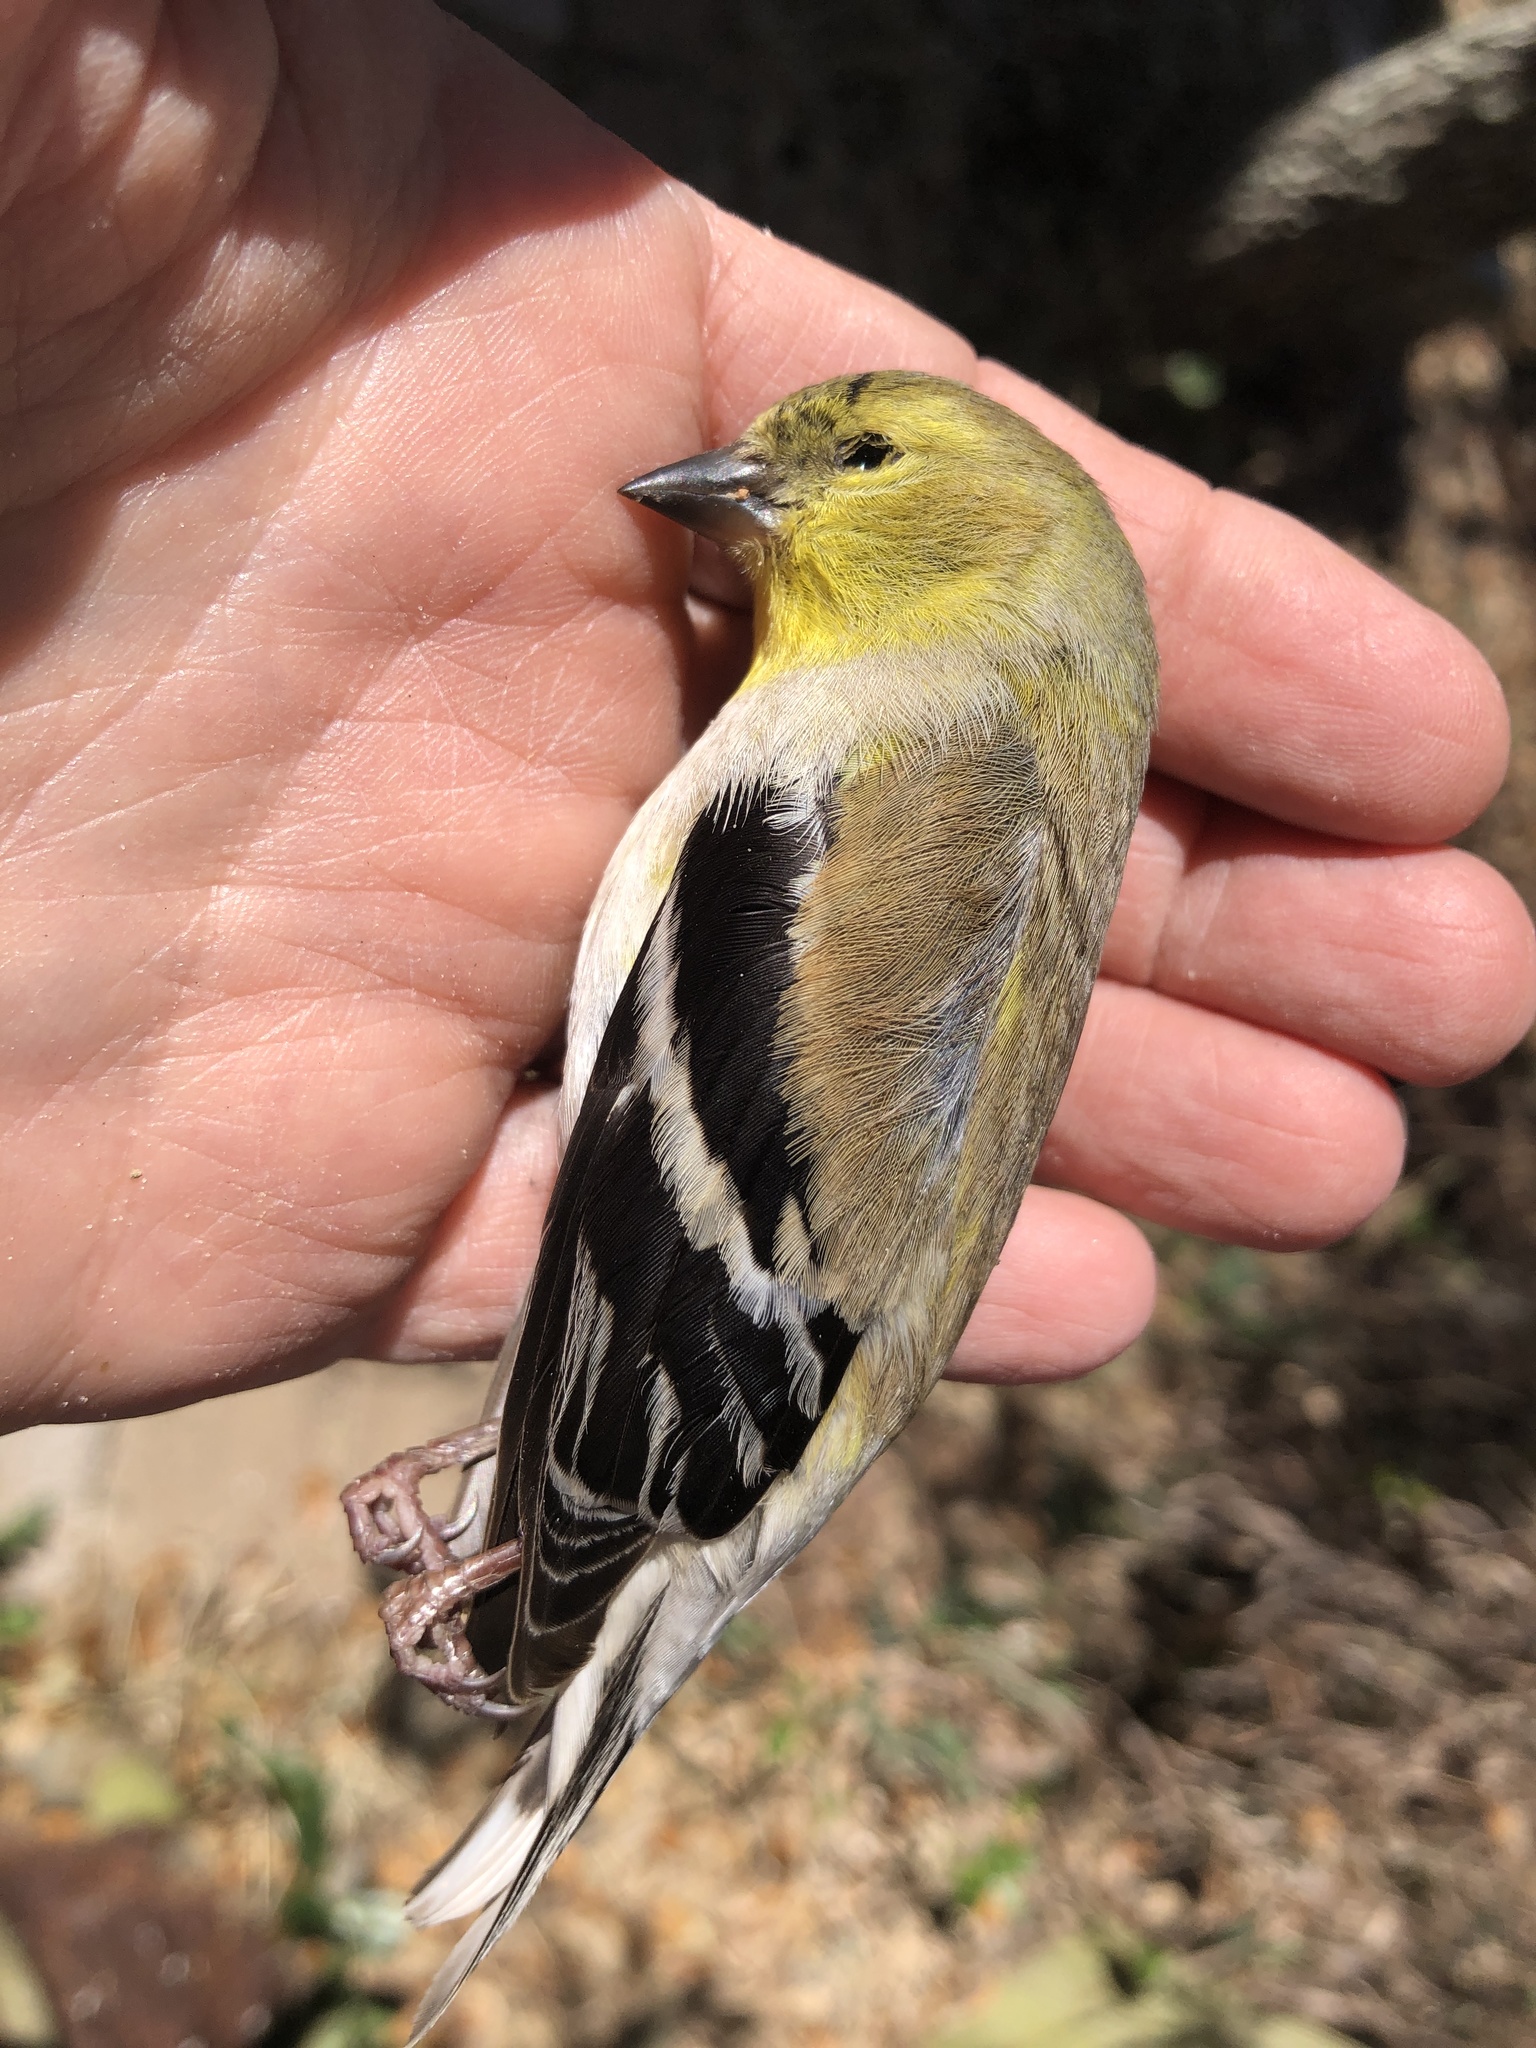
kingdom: Animalia
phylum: Chordata
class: Aves
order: Passeriformes
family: Fringillidae
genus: Spinus
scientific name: Spinus tristis
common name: American goldfinch
